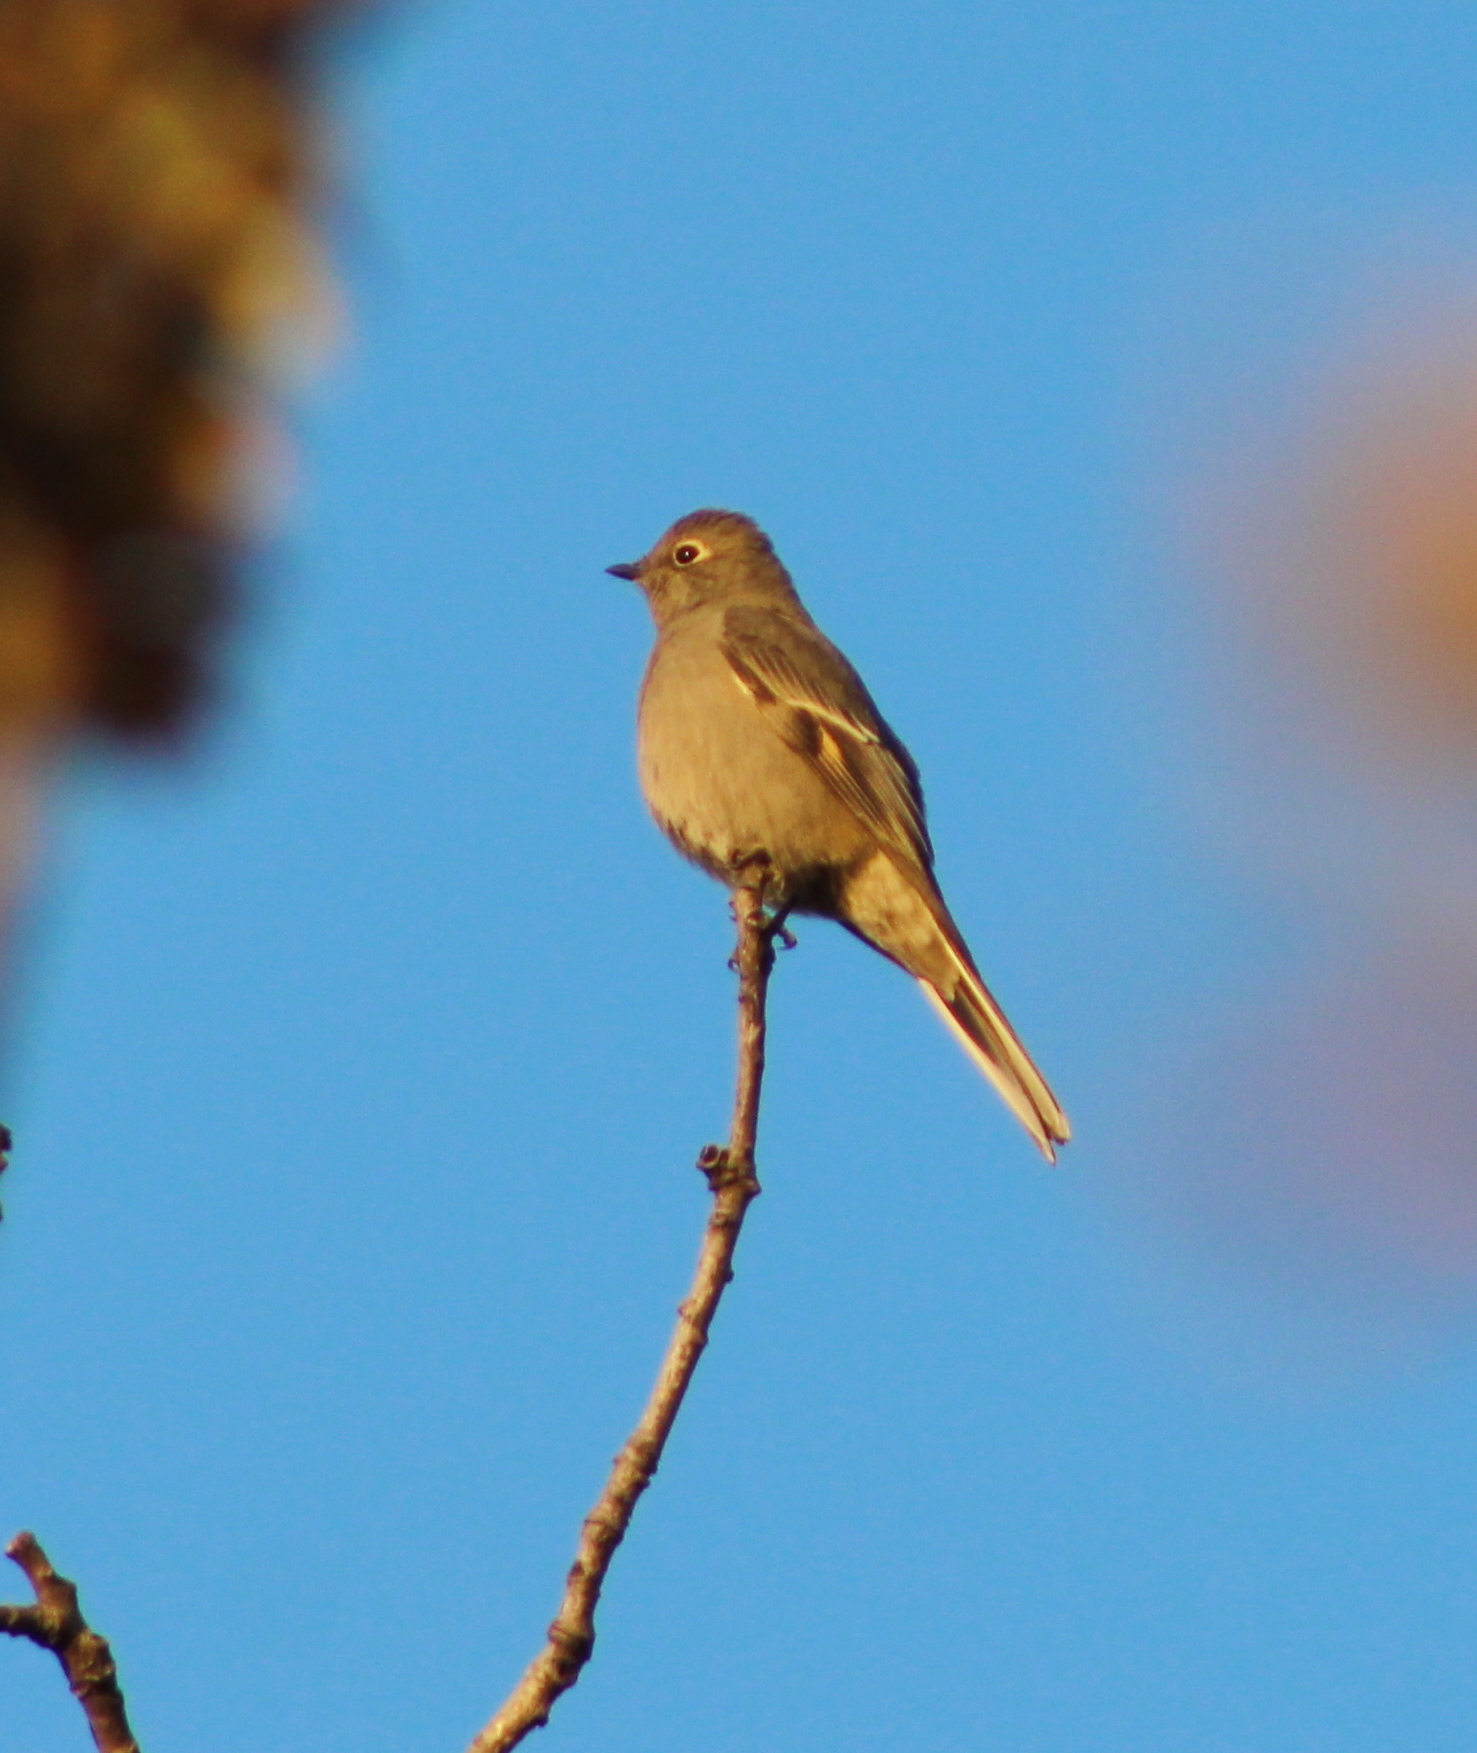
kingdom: Animalia
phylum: Chordata
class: Aves
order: Passeriformes
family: Turdidae
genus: Myadestes
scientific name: Myadestes townsendi
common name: Townsend's solitaire
